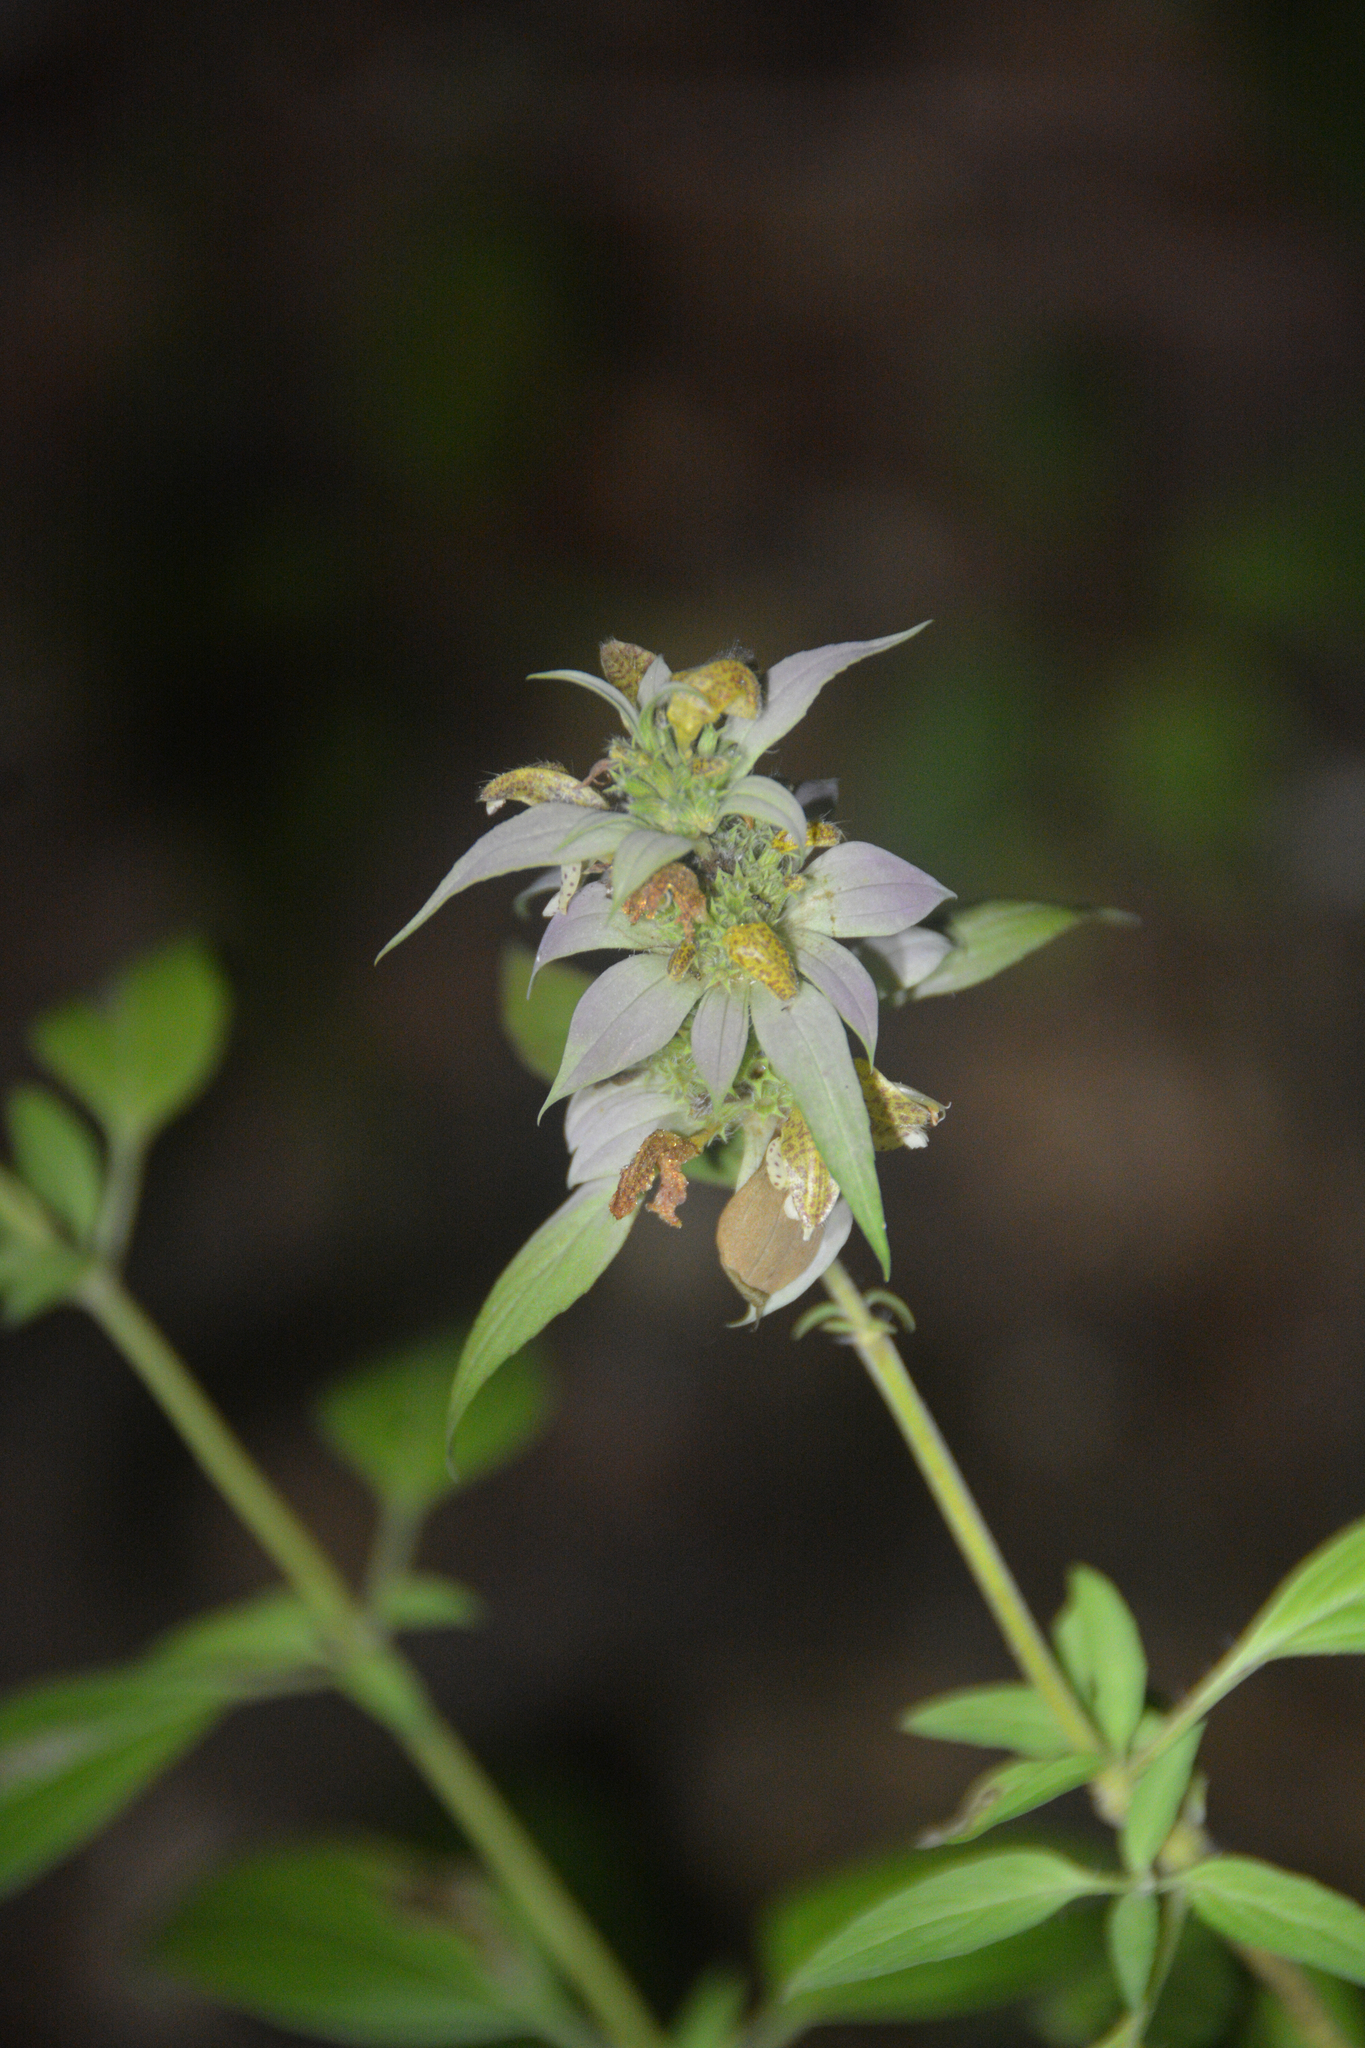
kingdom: Plantae
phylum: Tracheophyta
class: Magnoliopsida
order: Lamiales
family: Lamiaceae
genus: Monarda
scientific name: Monarda punctata
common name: Dotted monarda
